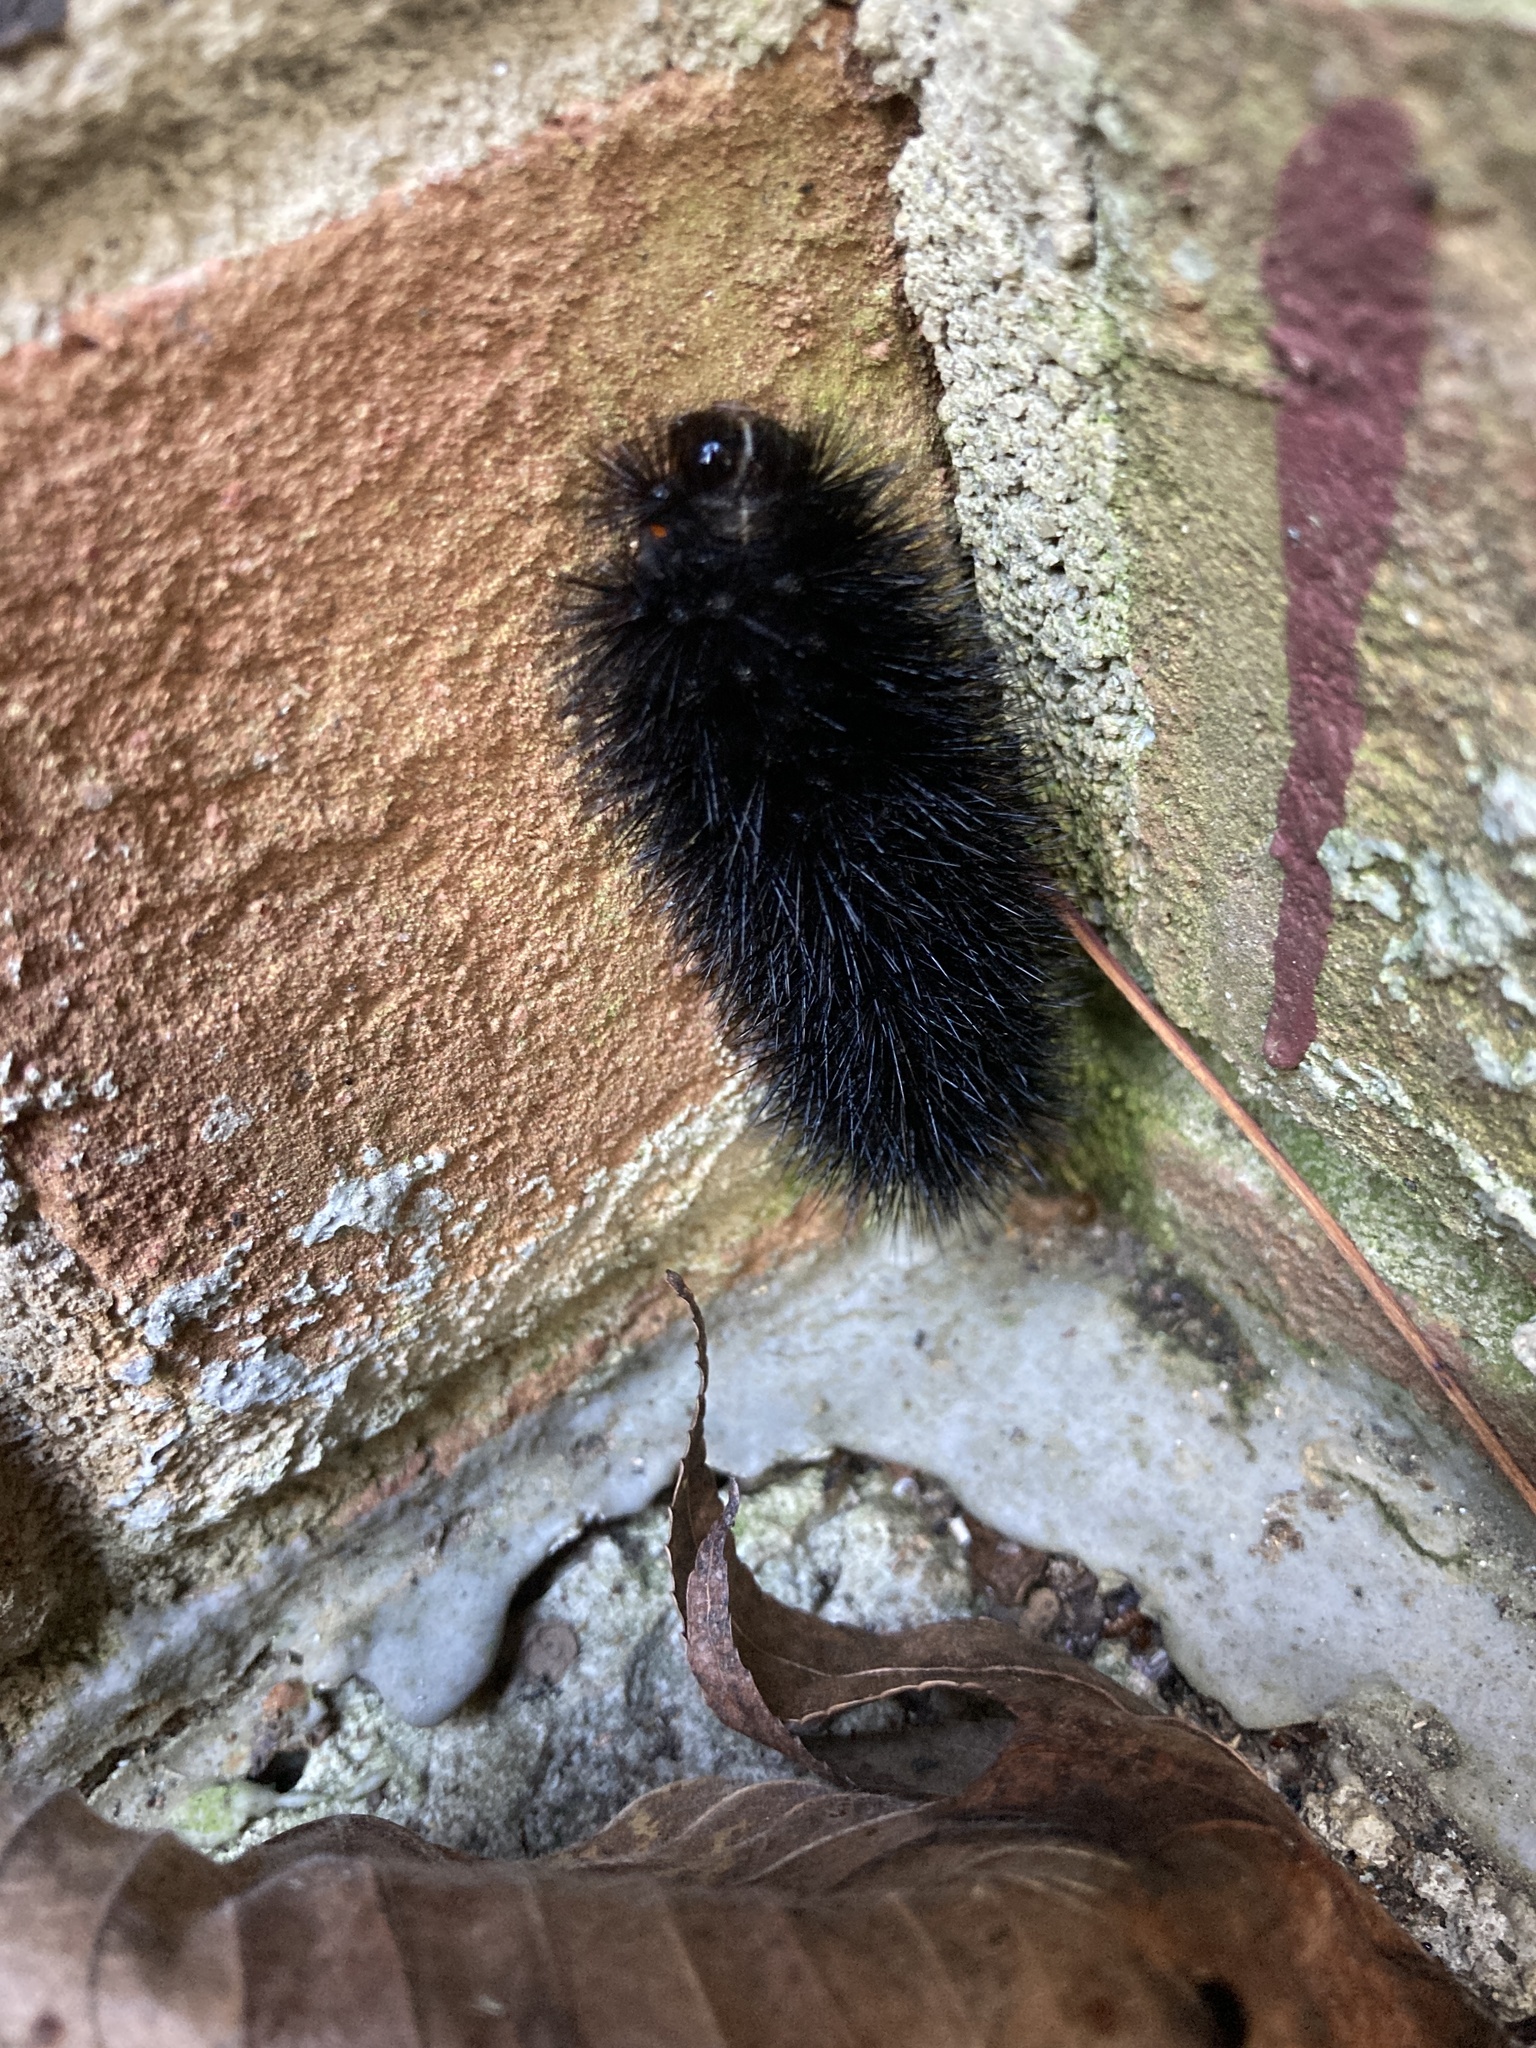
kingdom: Animalia
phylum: Arthropoda
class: Insecta
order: Lepidoptera
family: Erebidae
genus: Hypercompe
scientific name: Hypercompe scribonia
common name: Giant leopard moth
